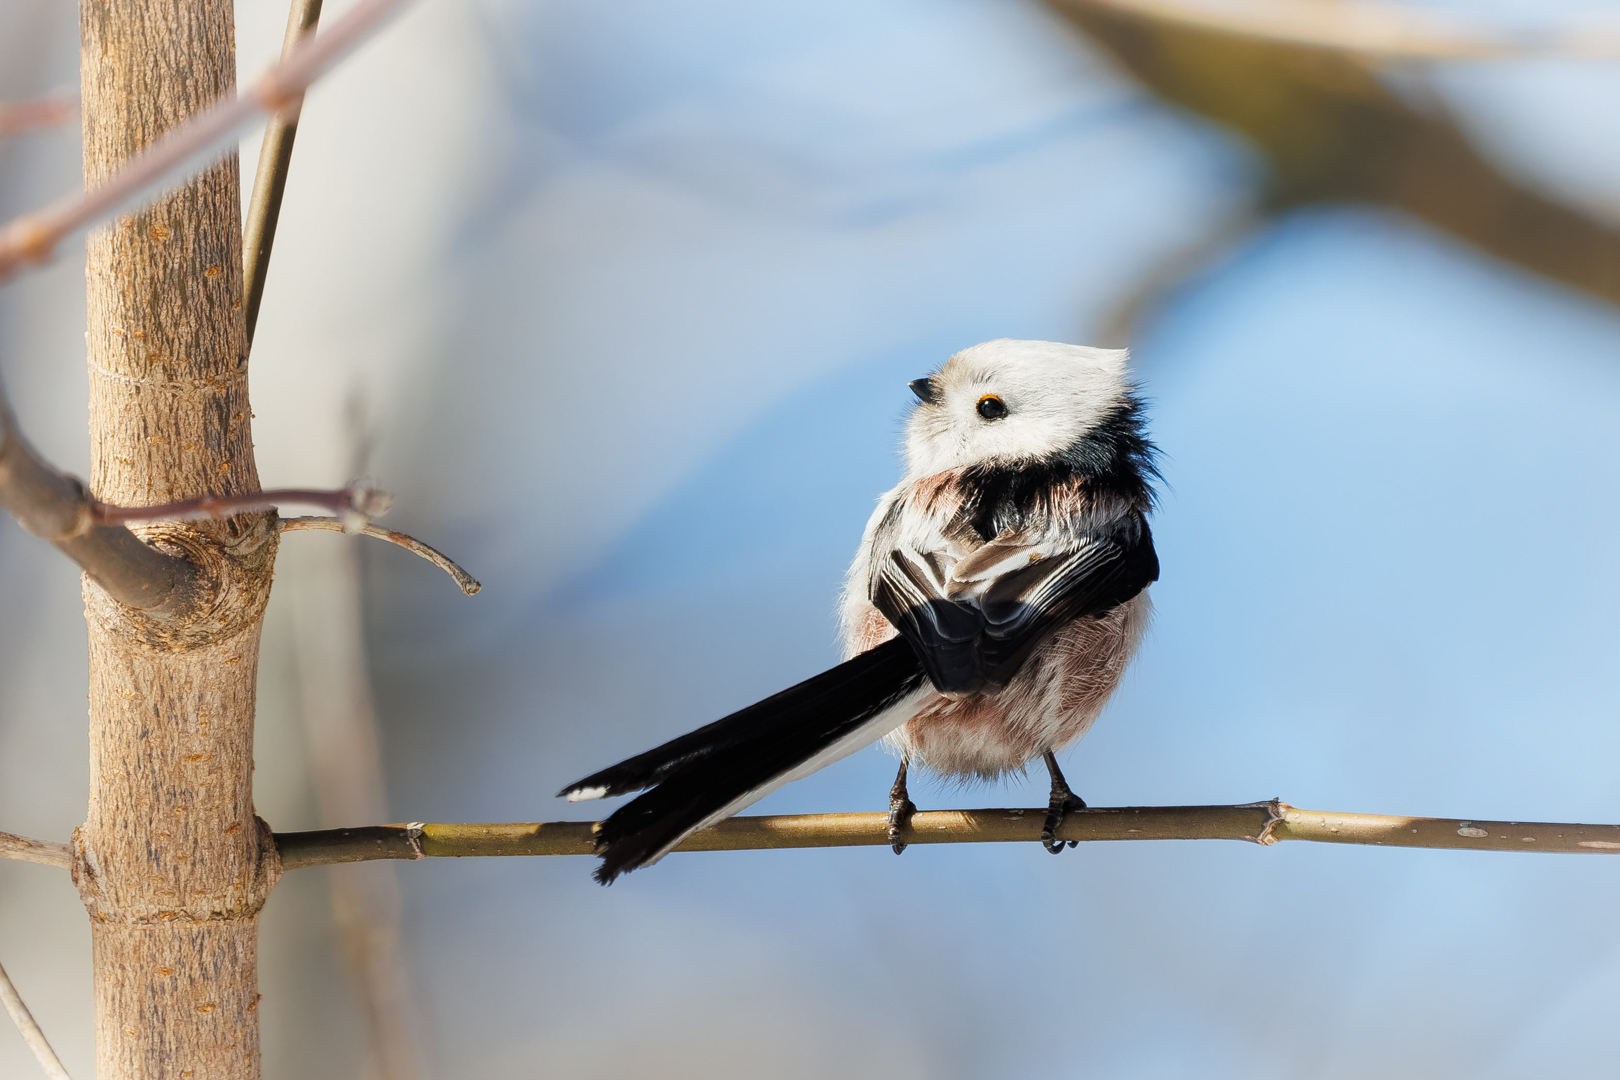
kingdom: Animalia
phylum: Chordata
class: Aves
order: Passeriformes
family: Aegithalidae
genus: Aegithalos
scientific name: Aegithalos caudatus
